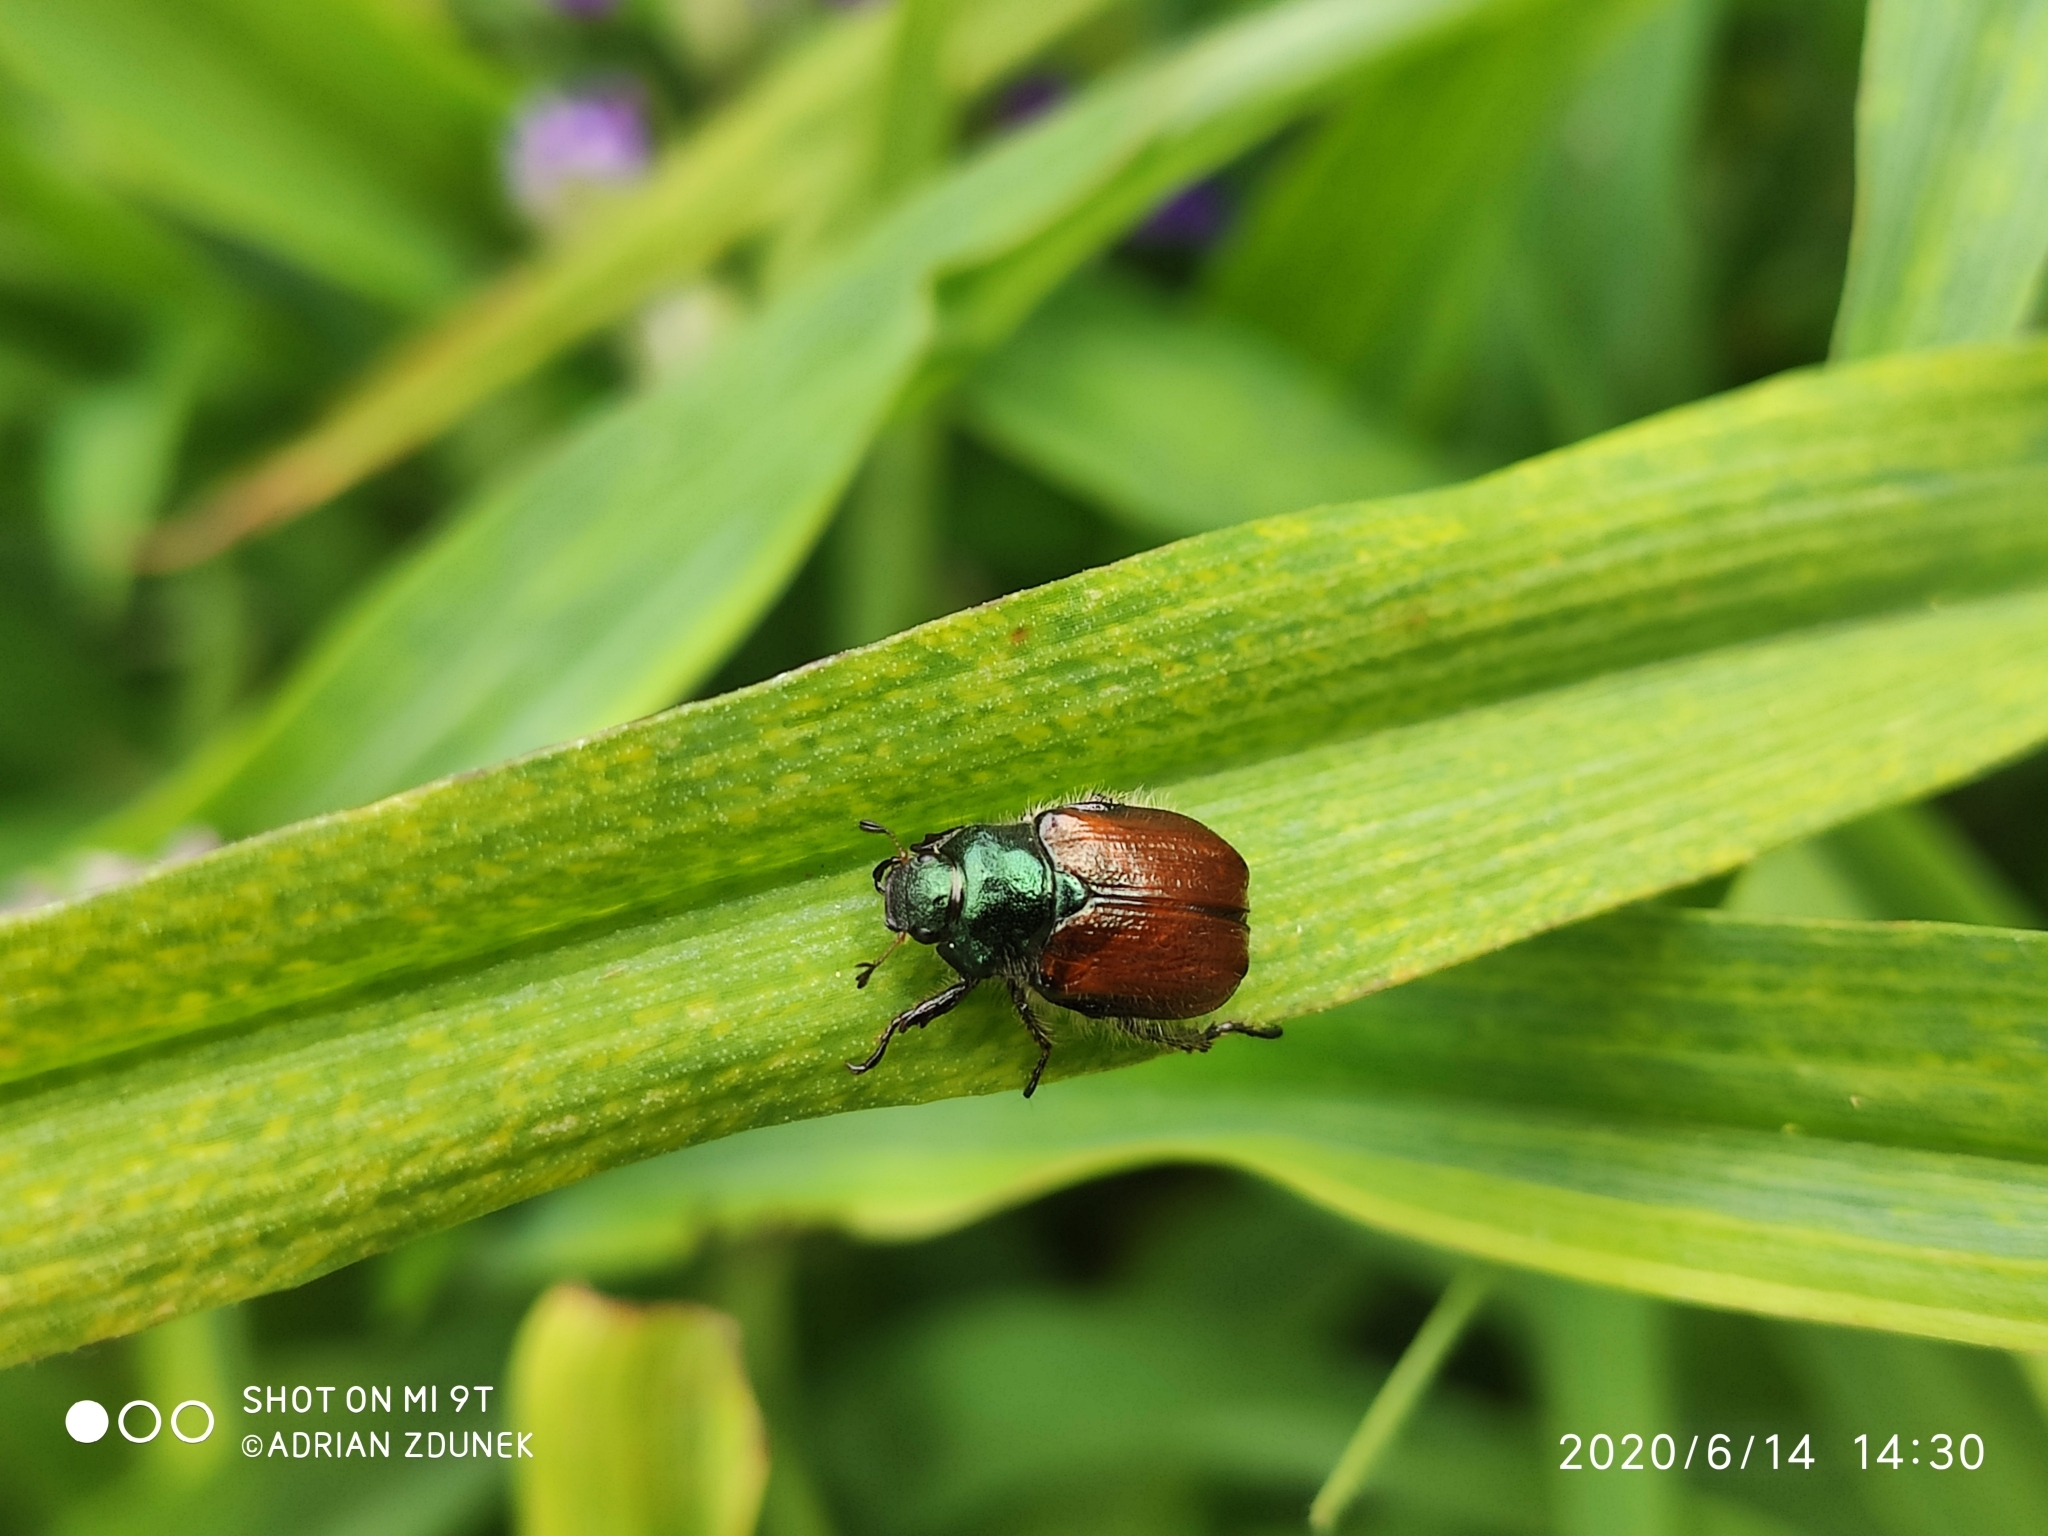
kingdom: Animalia
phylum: Arthropoda
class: Insecta
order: Coleoptera
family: Scarabaeidae
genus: Phyllopertha
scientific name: Phyllopertha horticola
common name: Garden chafer
